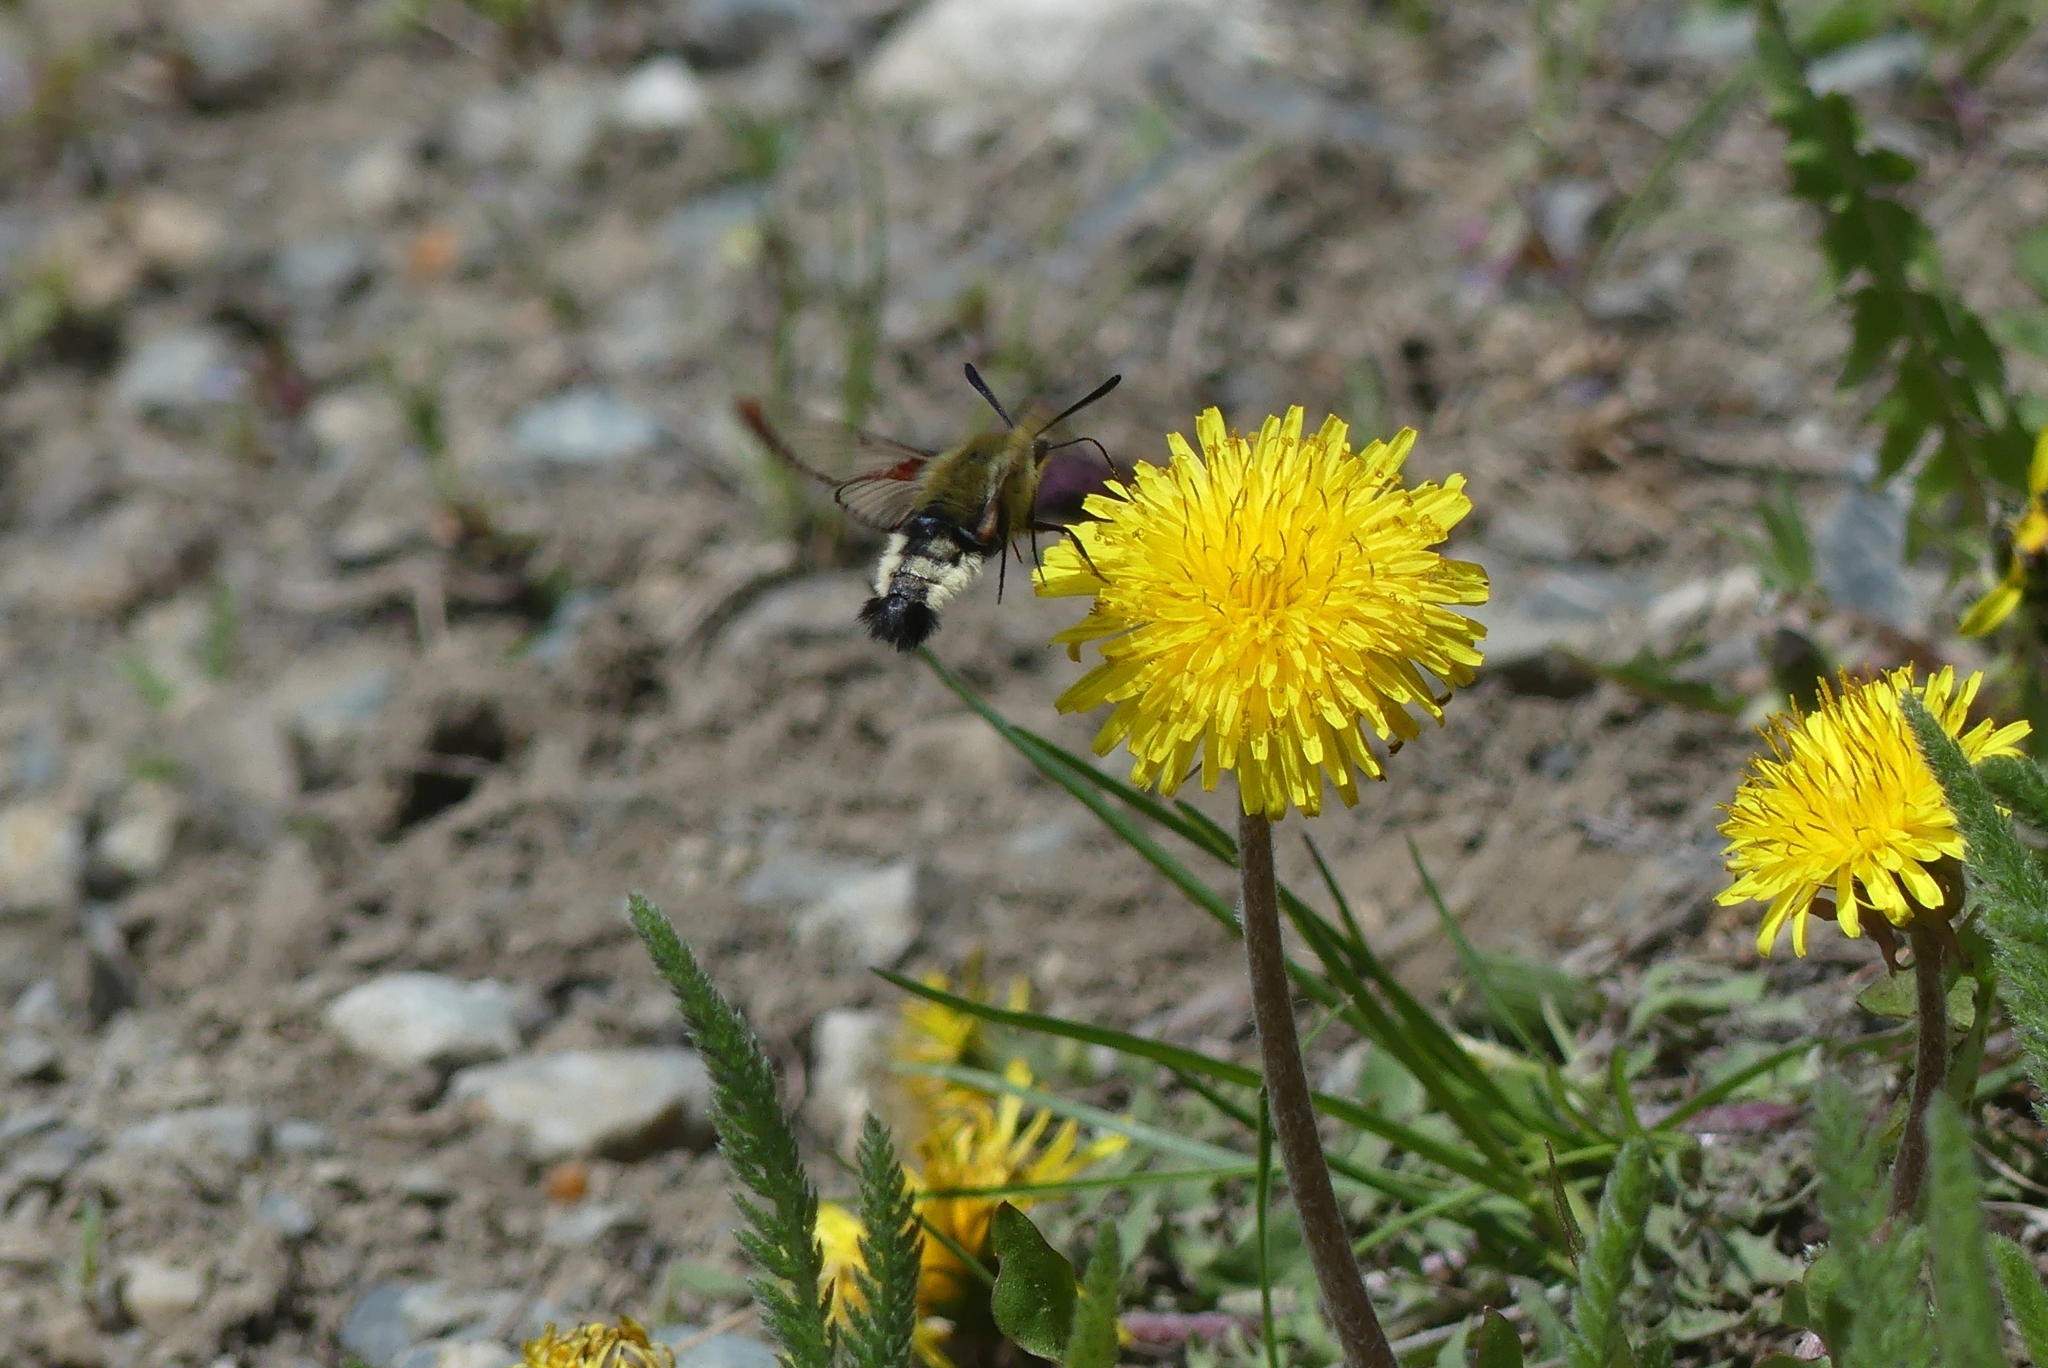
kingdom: Animalia
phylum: Arthropoda
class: Insecta
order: Lepidoptera
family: Sphingidae
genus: Hemaris
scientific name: Hemaris thetis
